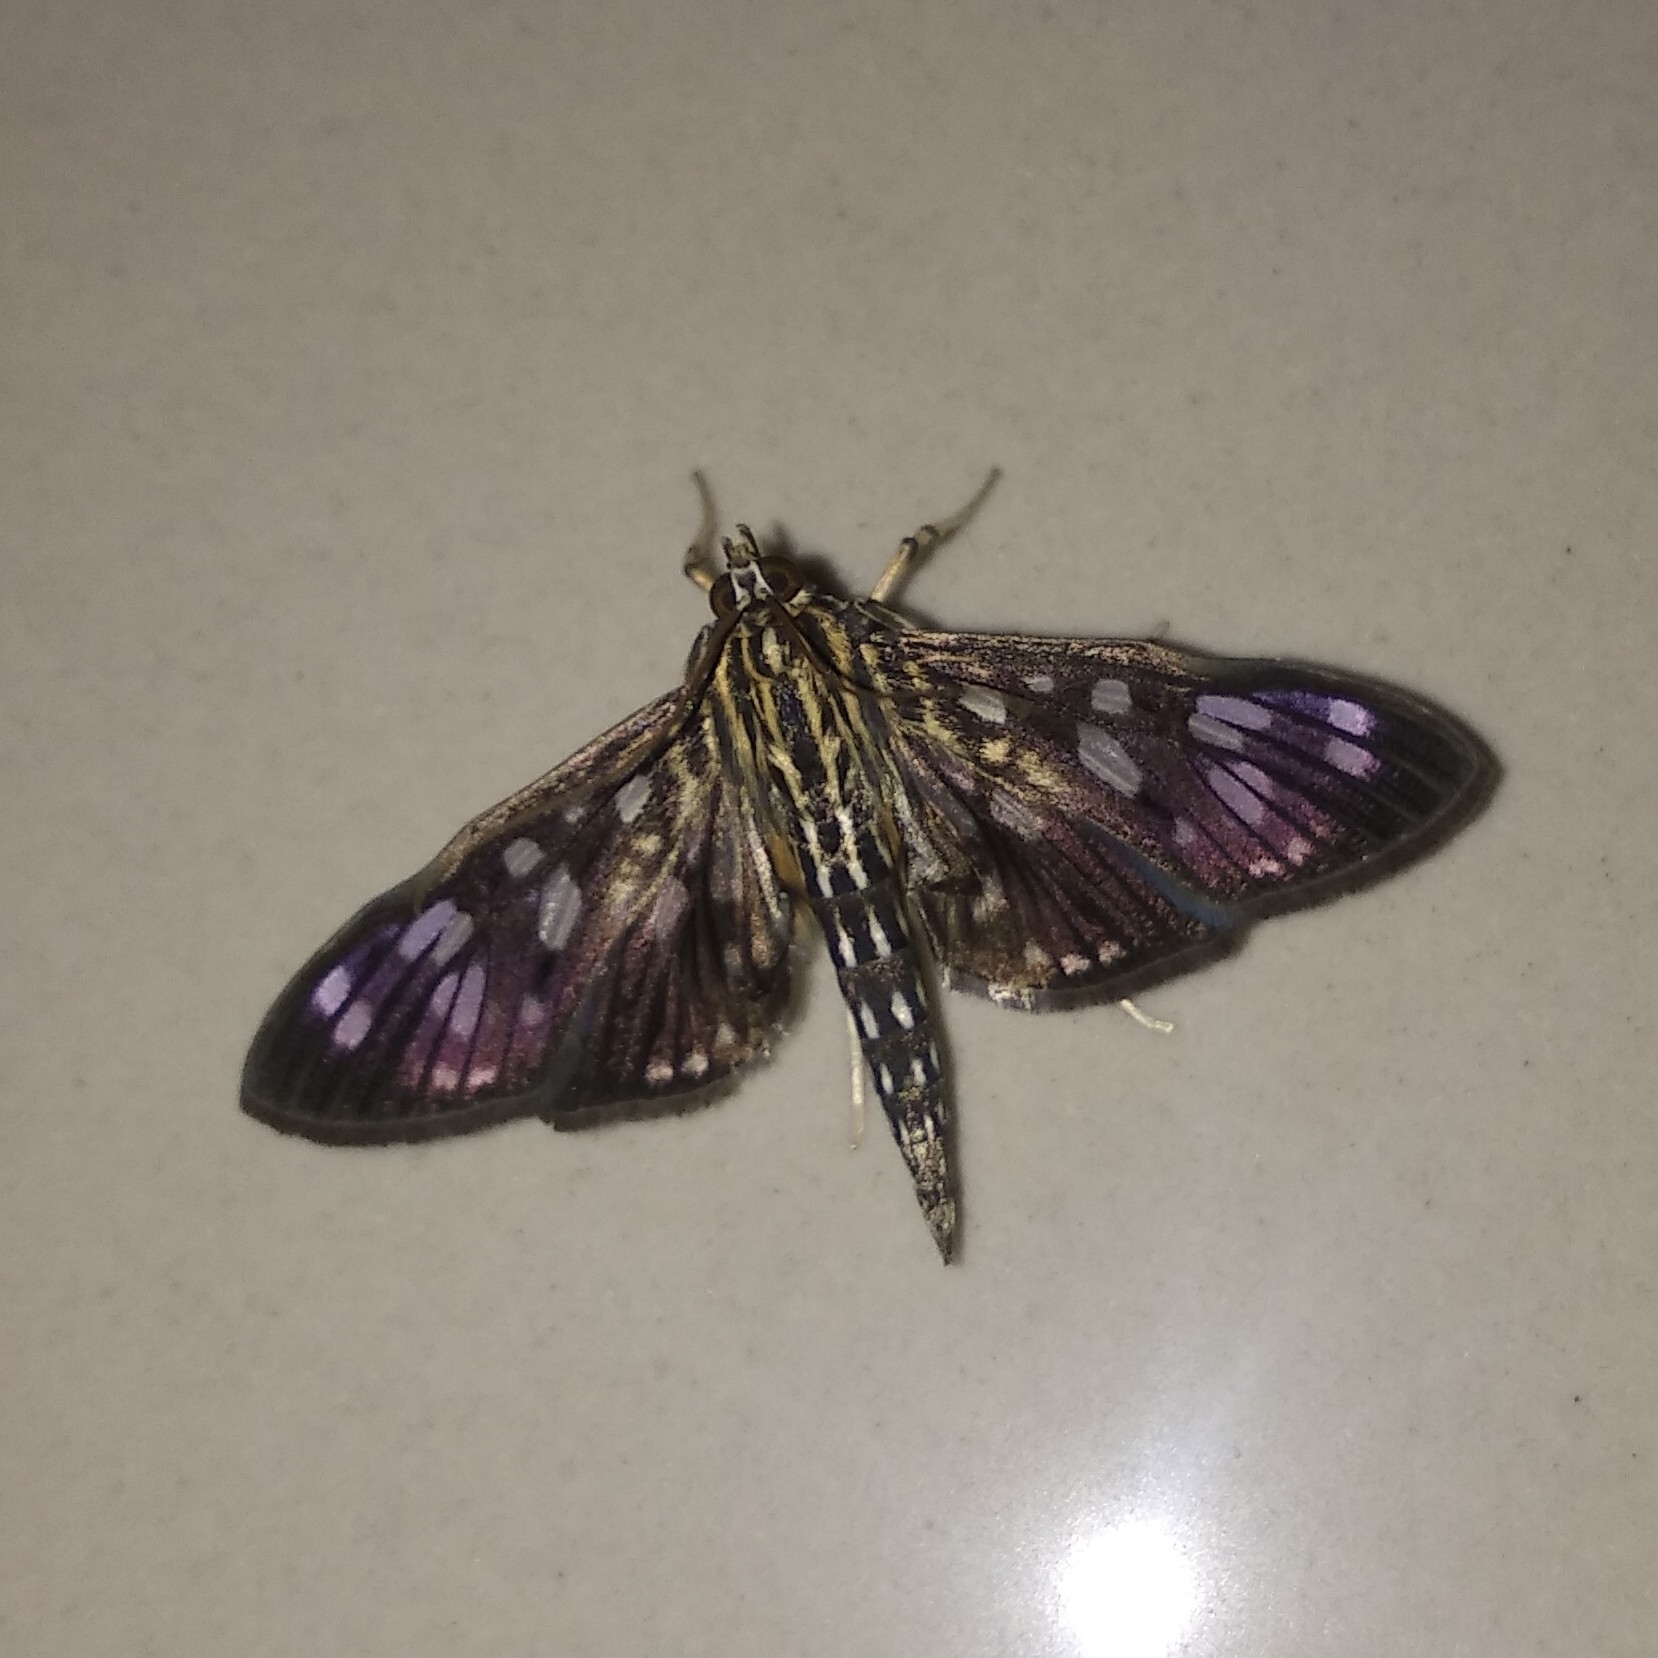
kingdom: Animalia
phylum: Arthropoda
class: Insecta
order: Lepidoptera
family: Crambidae
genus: Pygospila
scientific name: Pygospila costiflexalis
